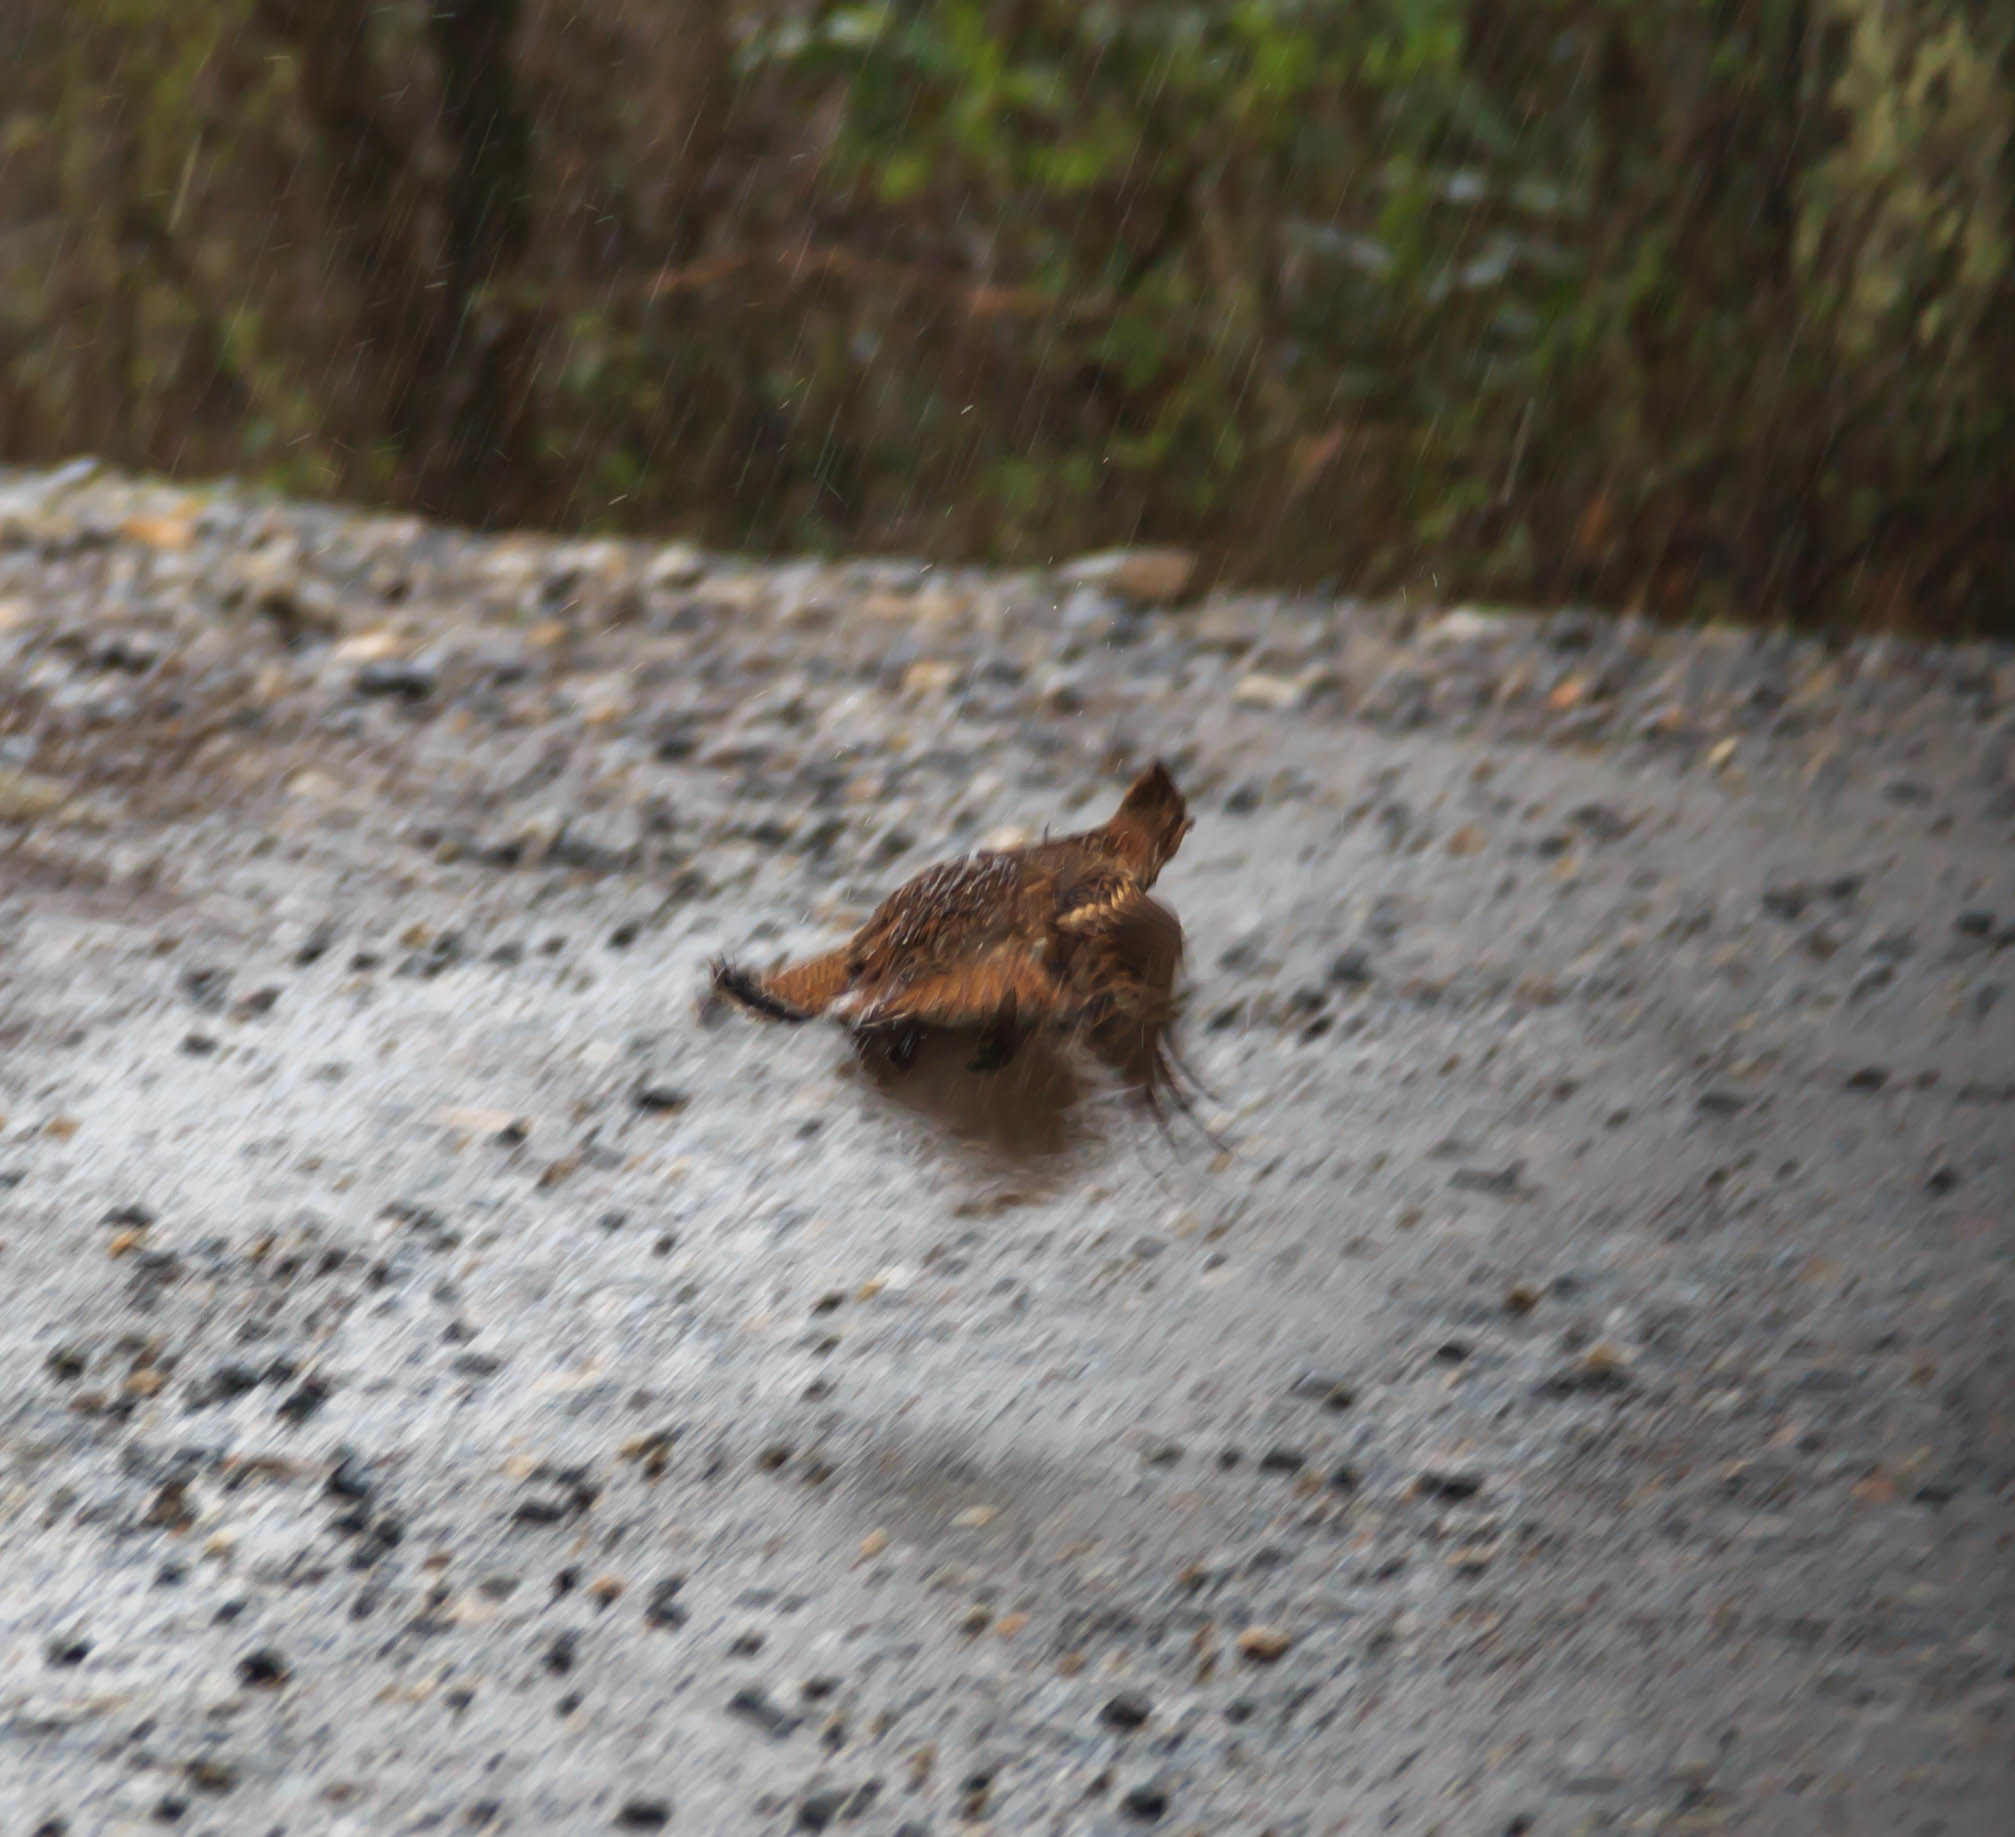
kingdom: Animalia
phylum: Chordata
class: Aves
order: Galliformes
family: Phasianidae
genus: Bonasa
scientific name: Bonasa umbellus
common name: Ruffed grouse
